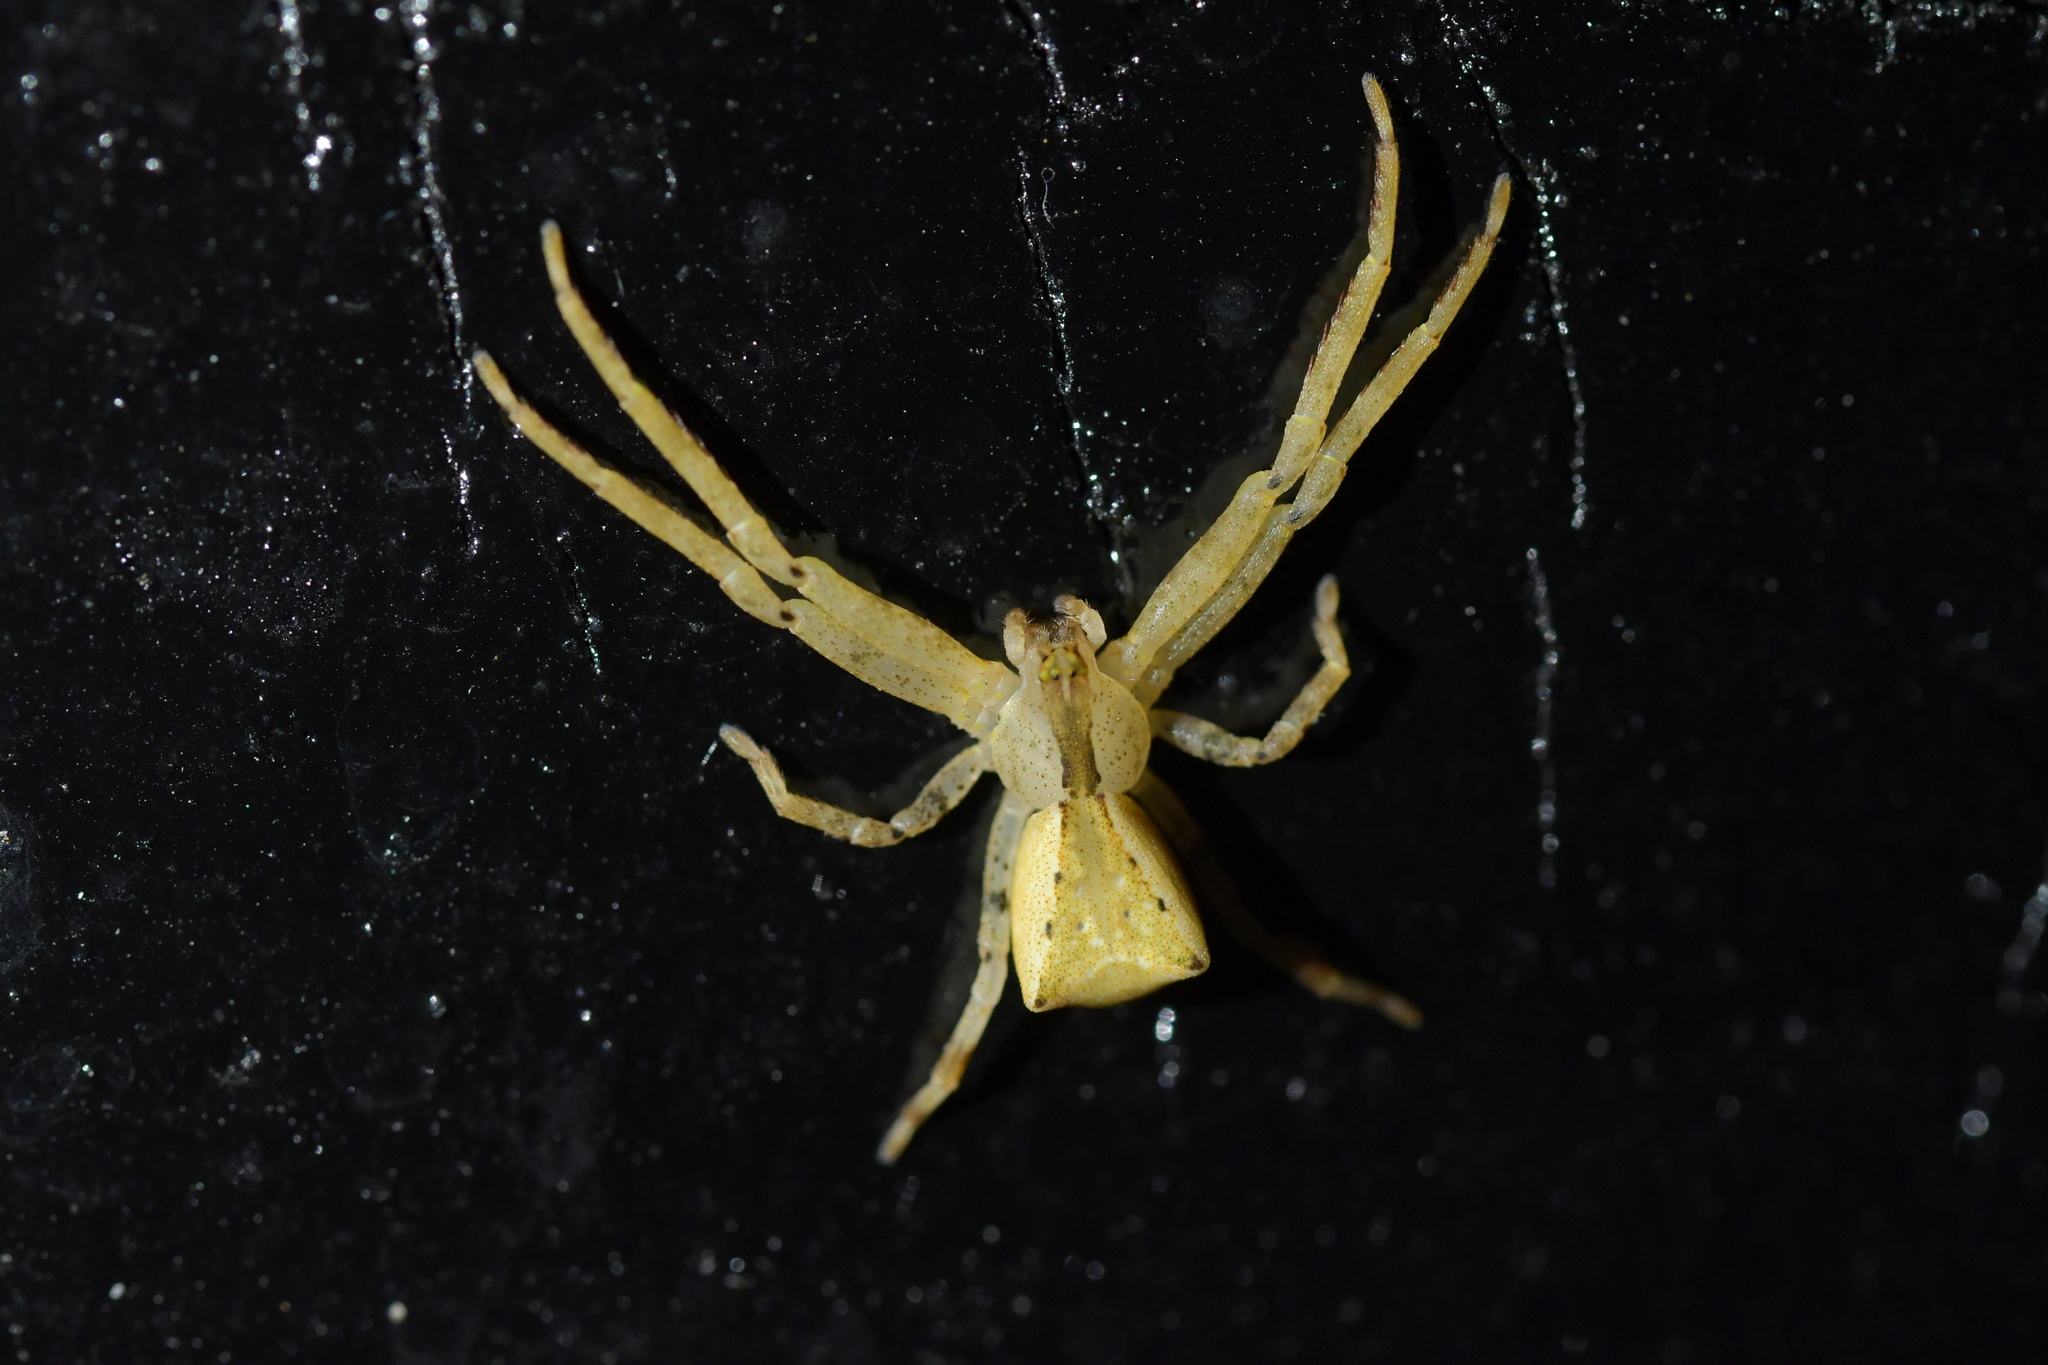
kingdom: Animalia
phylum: Arthropoda
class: Arachnida
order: Araneae
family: Thomisidae
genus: Sidymella
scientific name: Sidymella trapezia
